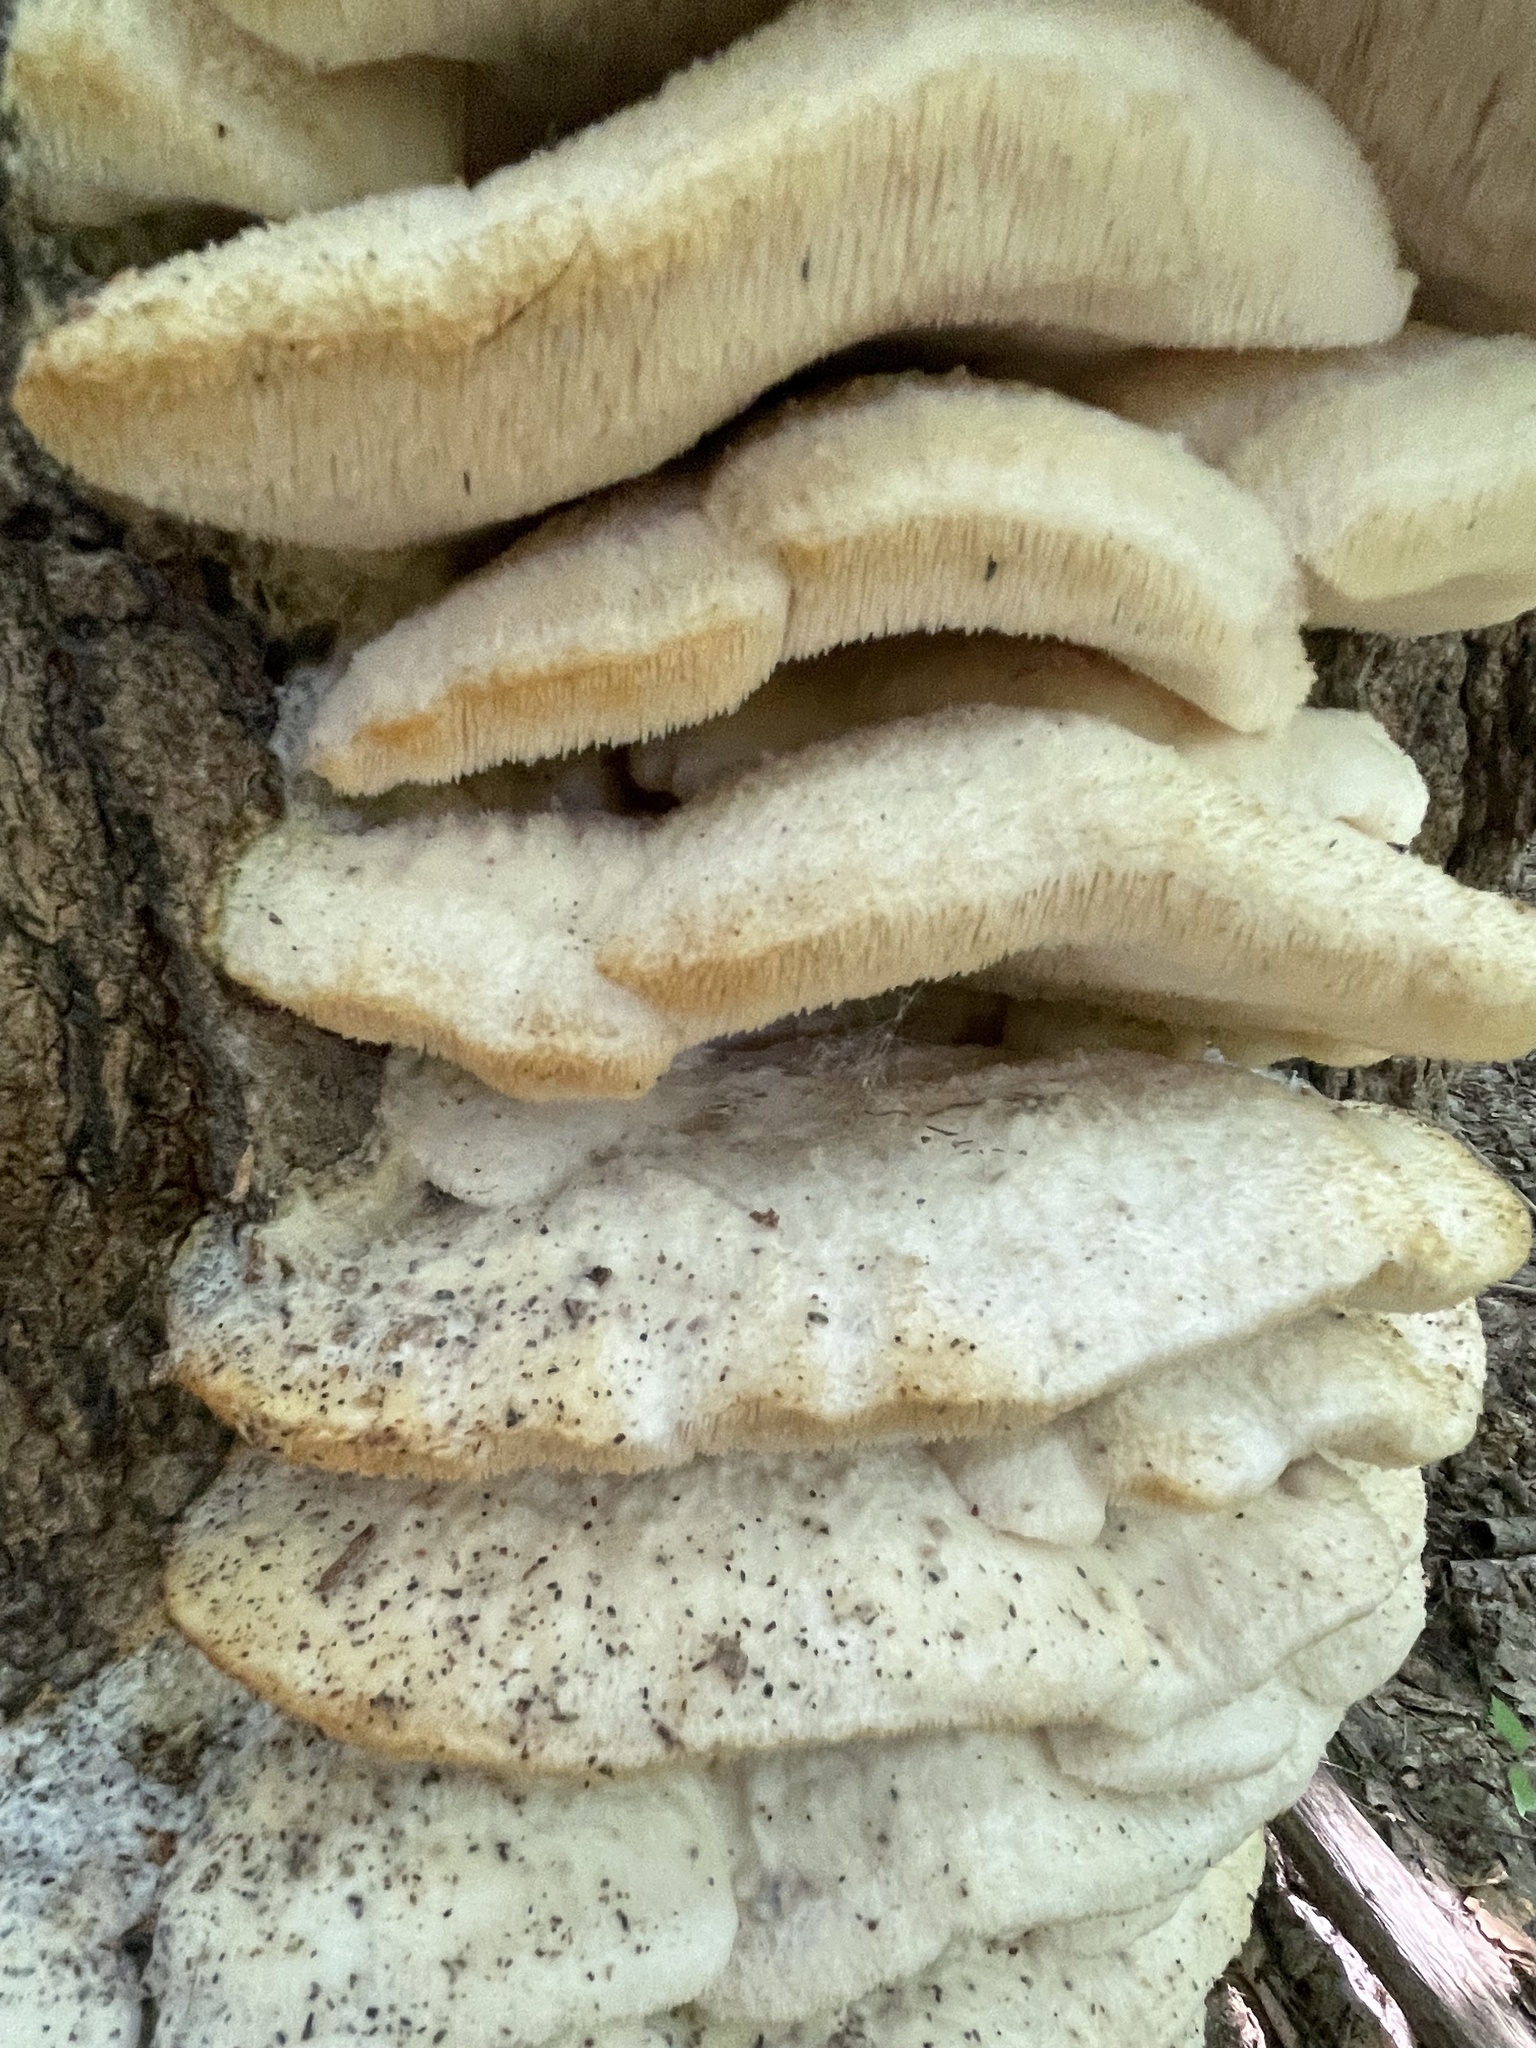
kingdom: Fungi
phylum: Basidiomycota
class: Agaricomycetes
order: Polyporales
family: Meruliaceae
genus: Climacodon
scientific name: Climacodon septentrionalis
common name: Northern tooth
